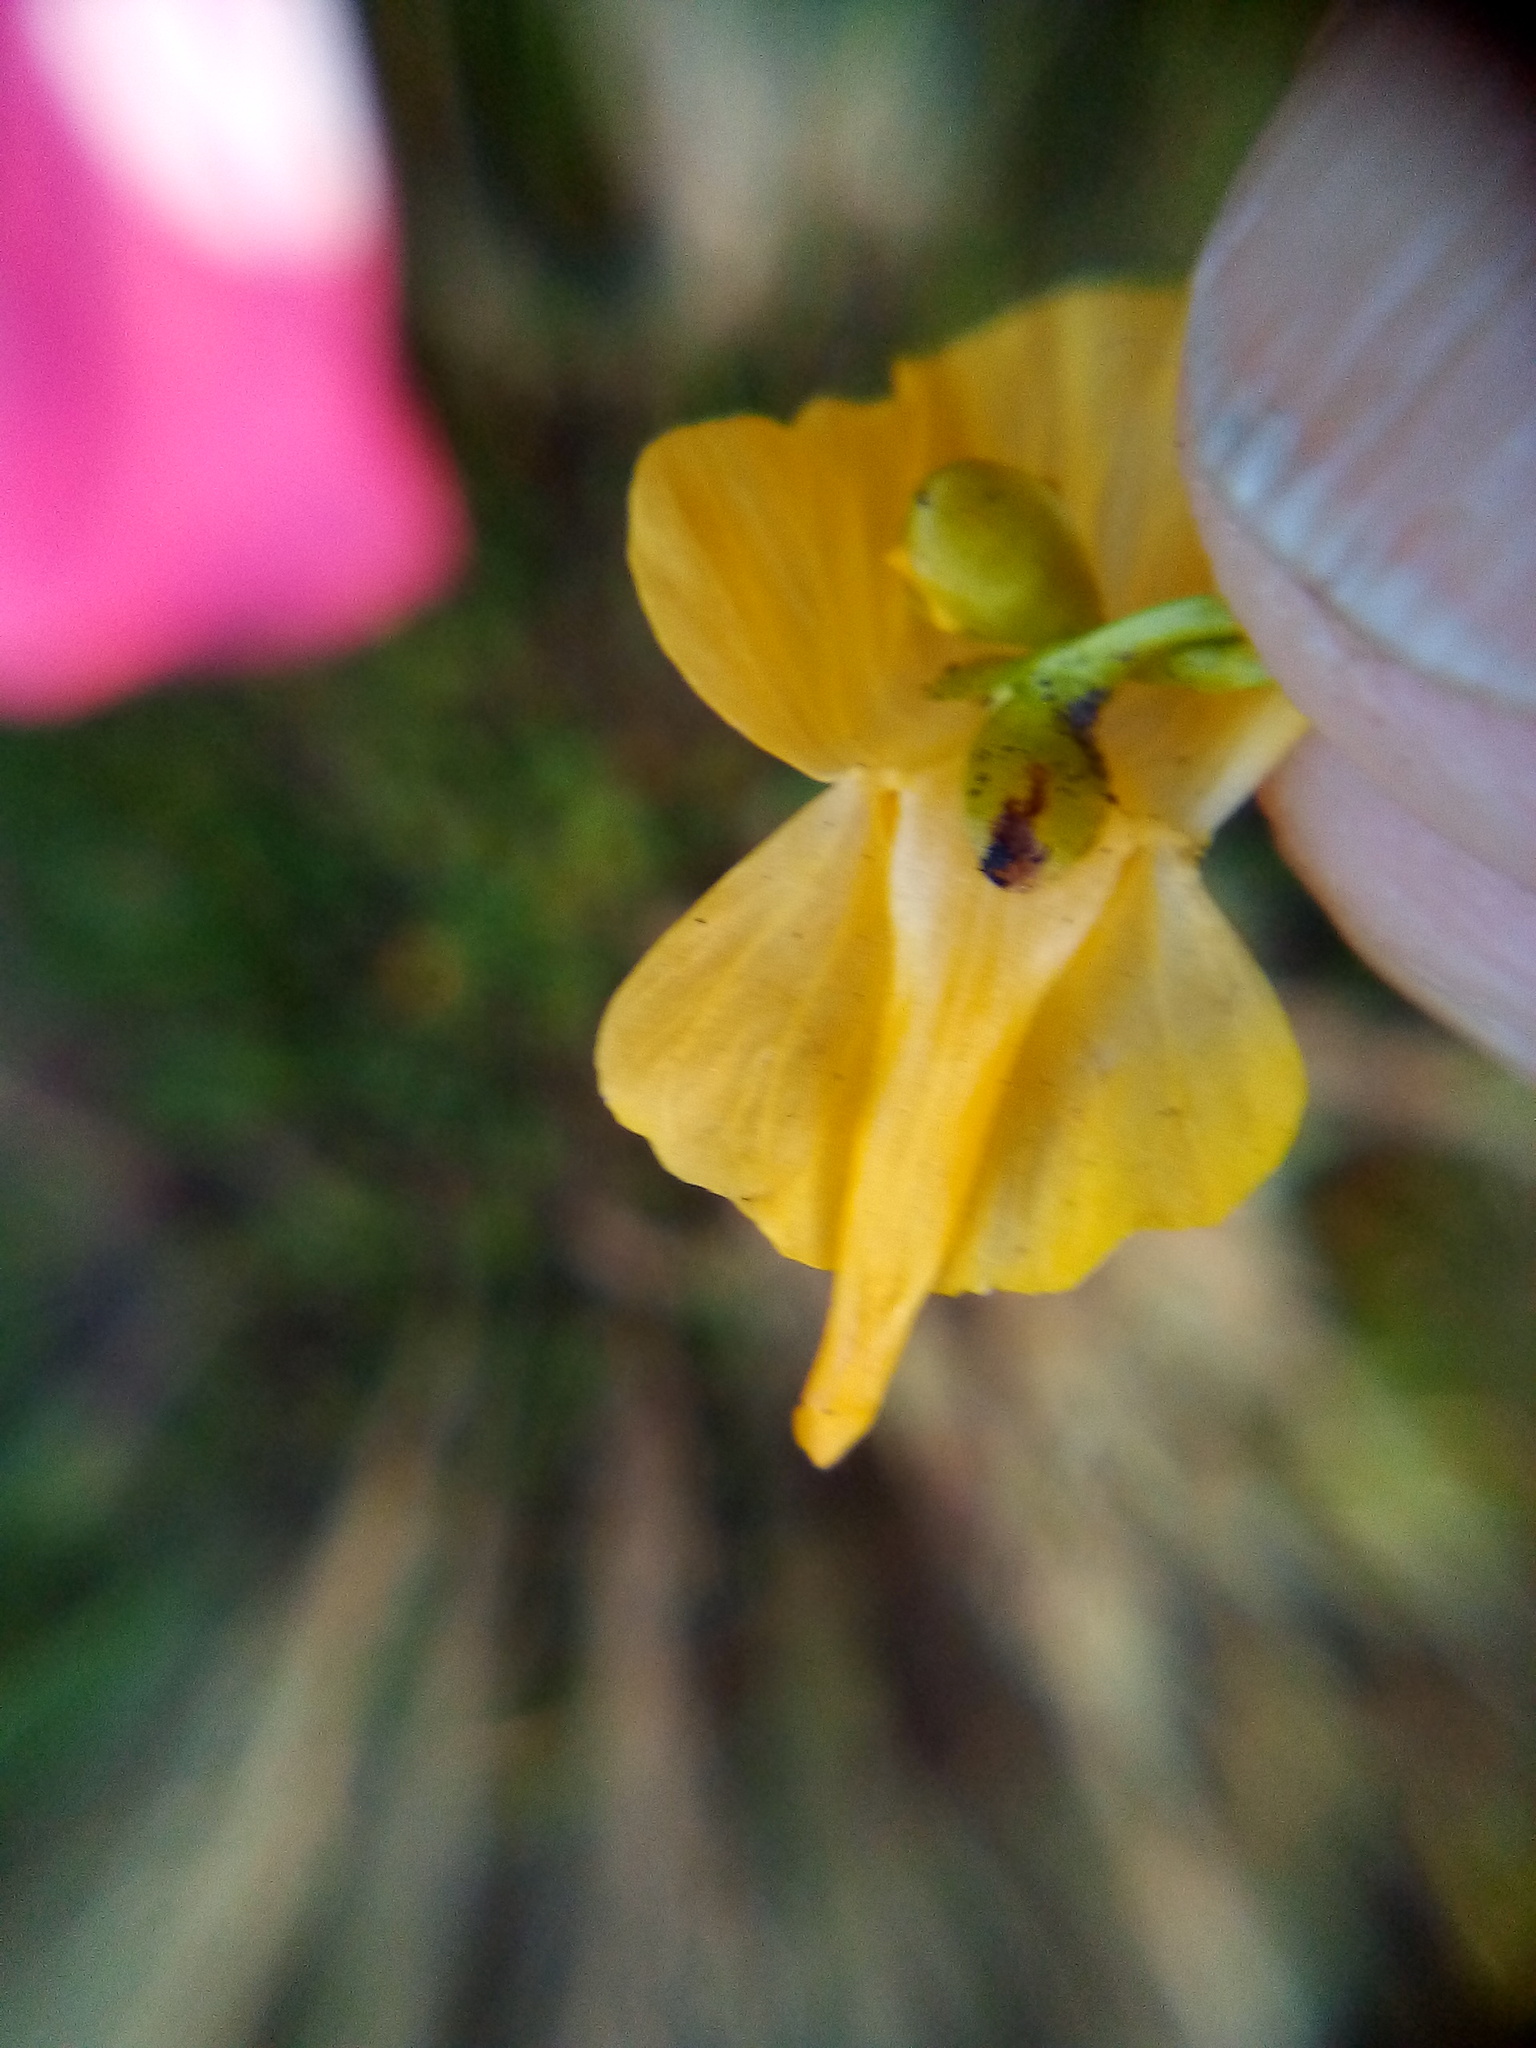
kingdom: Plantae
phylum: Tracheophyta
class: Magnoliopsida
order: Lamiales
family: Lentibulariaceae
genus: Utricularia
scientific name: Utricularia gibba
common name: Humped bladderwort
